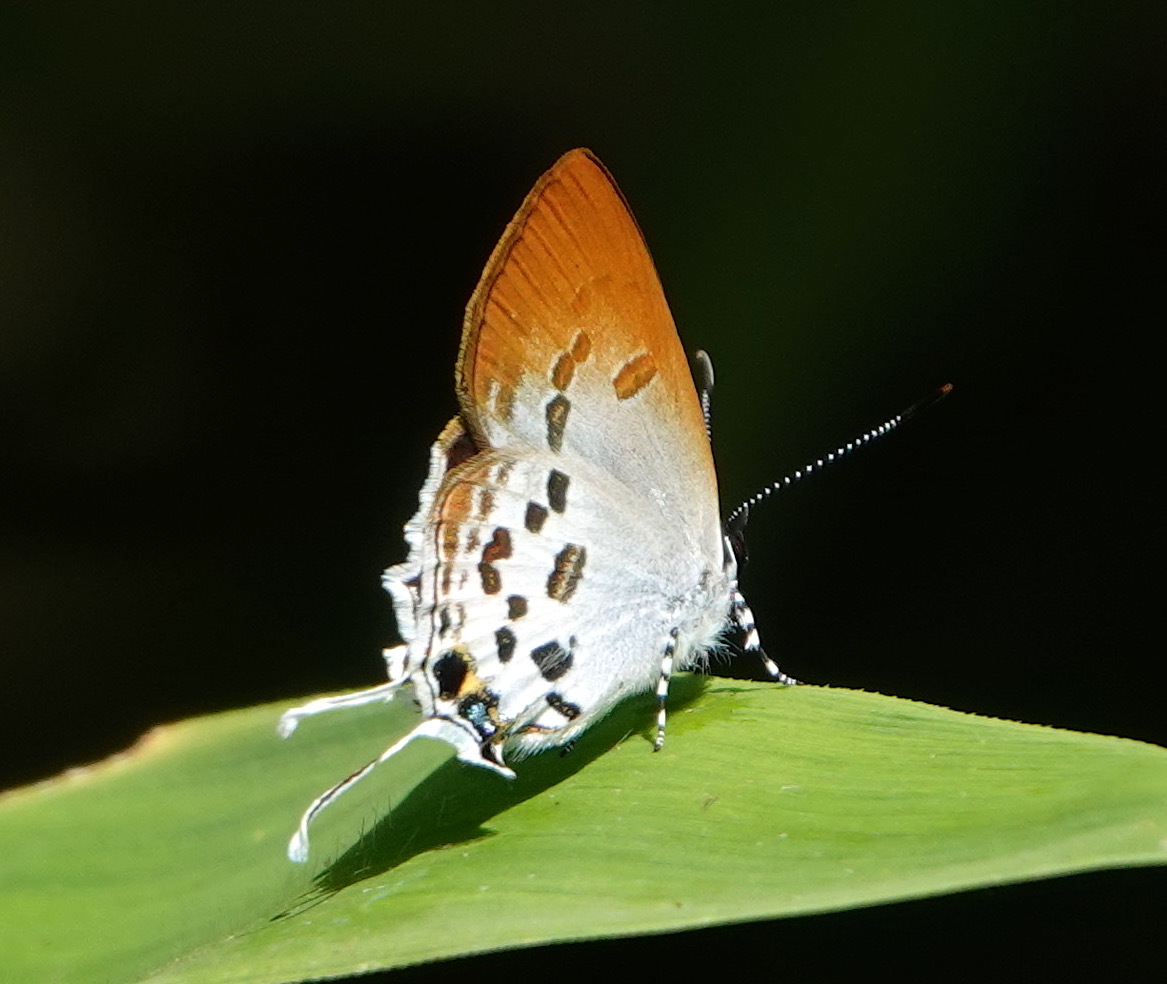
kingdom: Animalia
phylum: Arthropoda
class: Insecta
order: Lepidoptera
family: Lycaenidae
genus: Sinthusa
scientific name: Sinthusa malika
